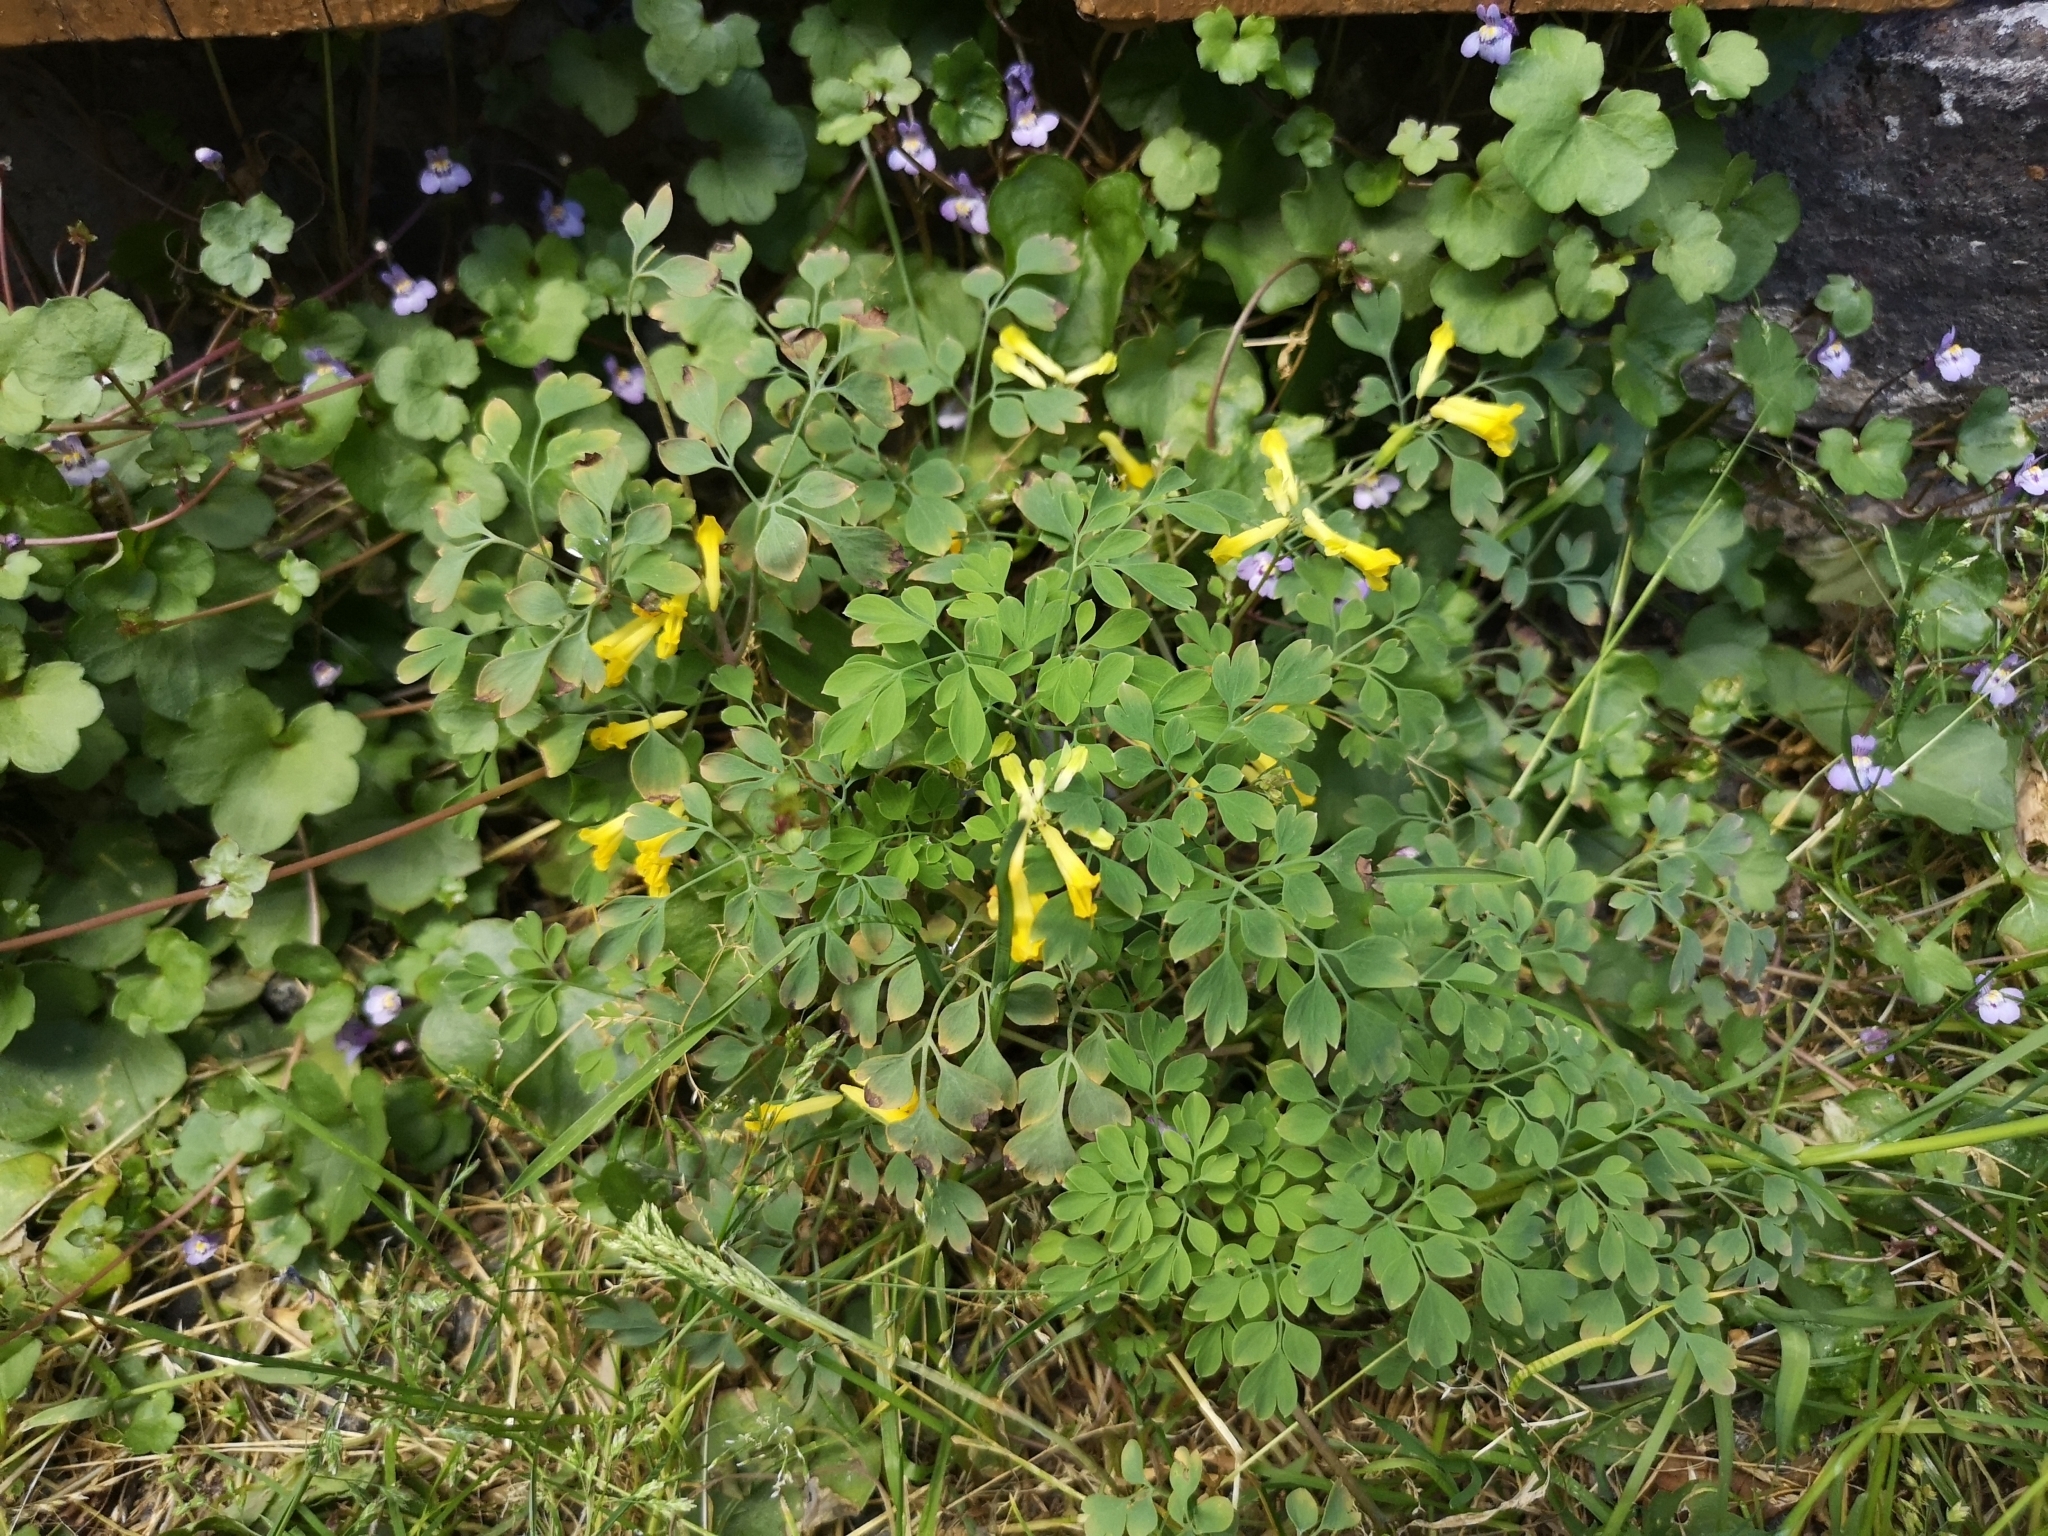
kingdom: Plantae
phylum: Tracheophyta
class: Magnoliopsida
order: Ranunculales
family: Papaveraceae
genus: Pseudofumaria
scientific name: Pseudofumaria lutea
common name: Yellow corydalis
